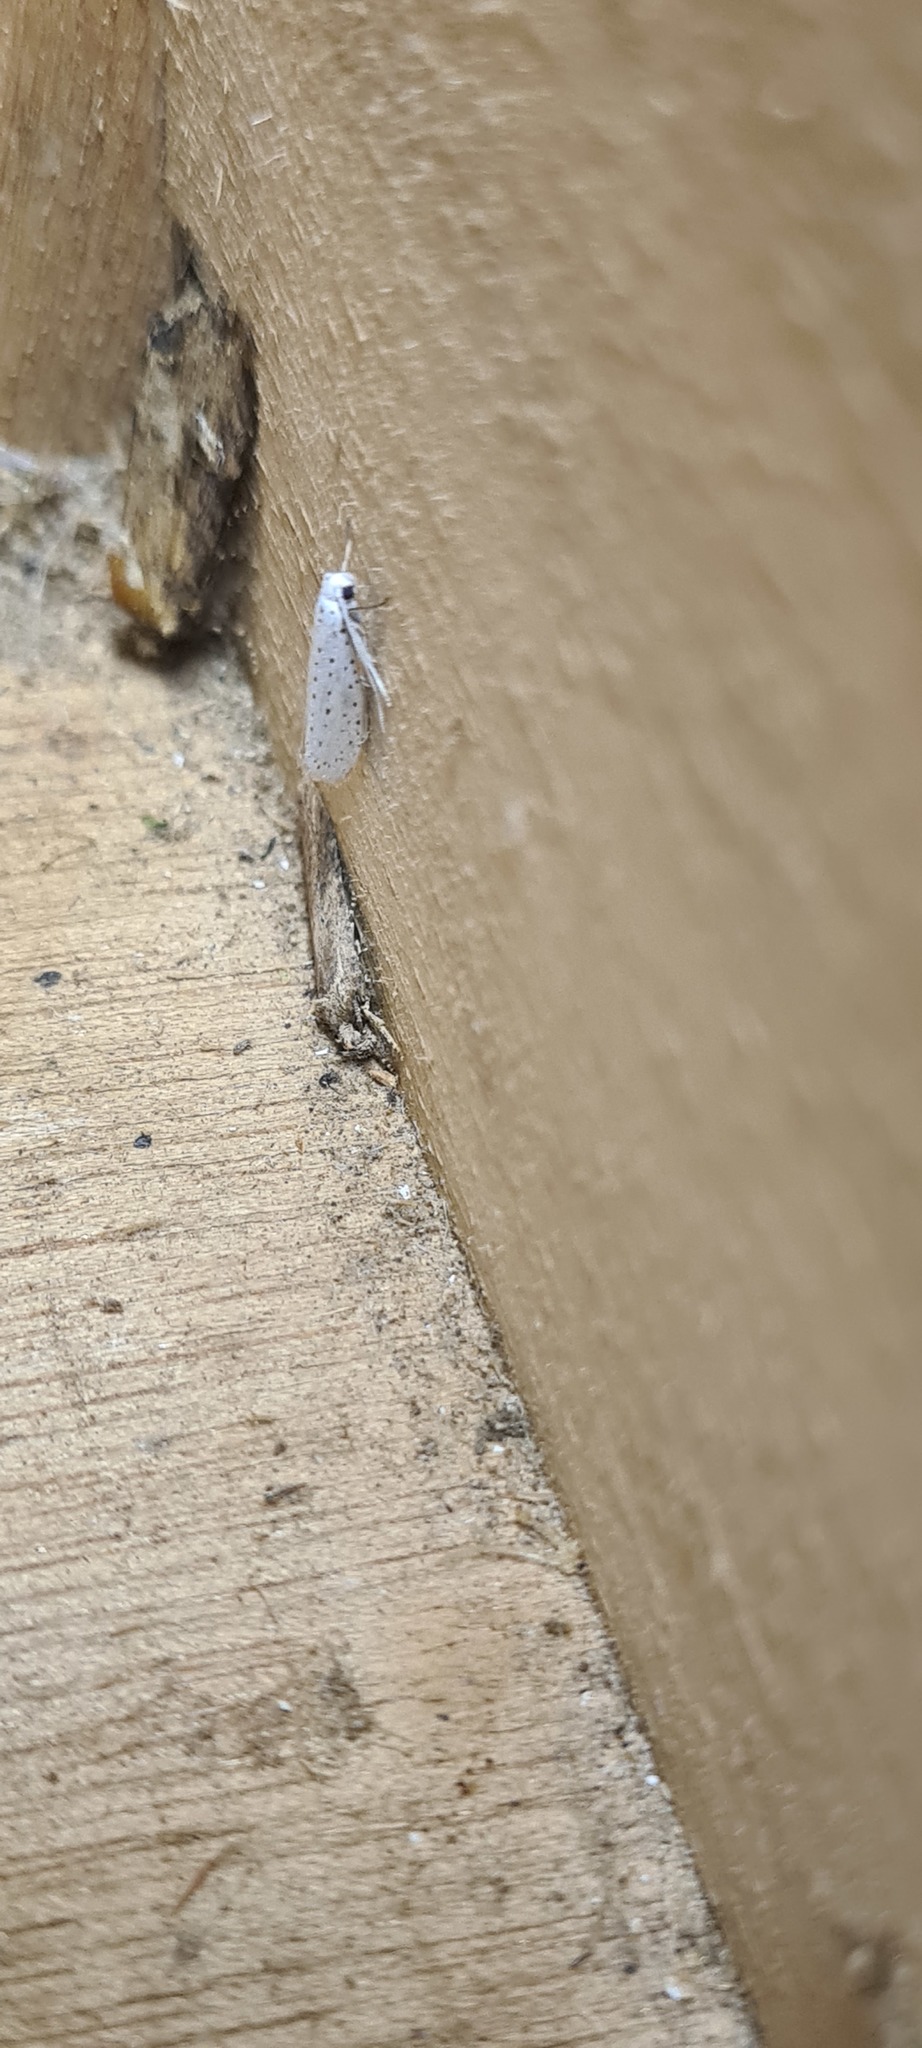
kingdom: Animalia
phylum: Arthropoda
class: Insecta
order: Lepidoptera
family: Yponomeutidae
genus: Yponomeuta
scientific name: Yponomeuta evonymella
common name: Bird-cherry ermine
